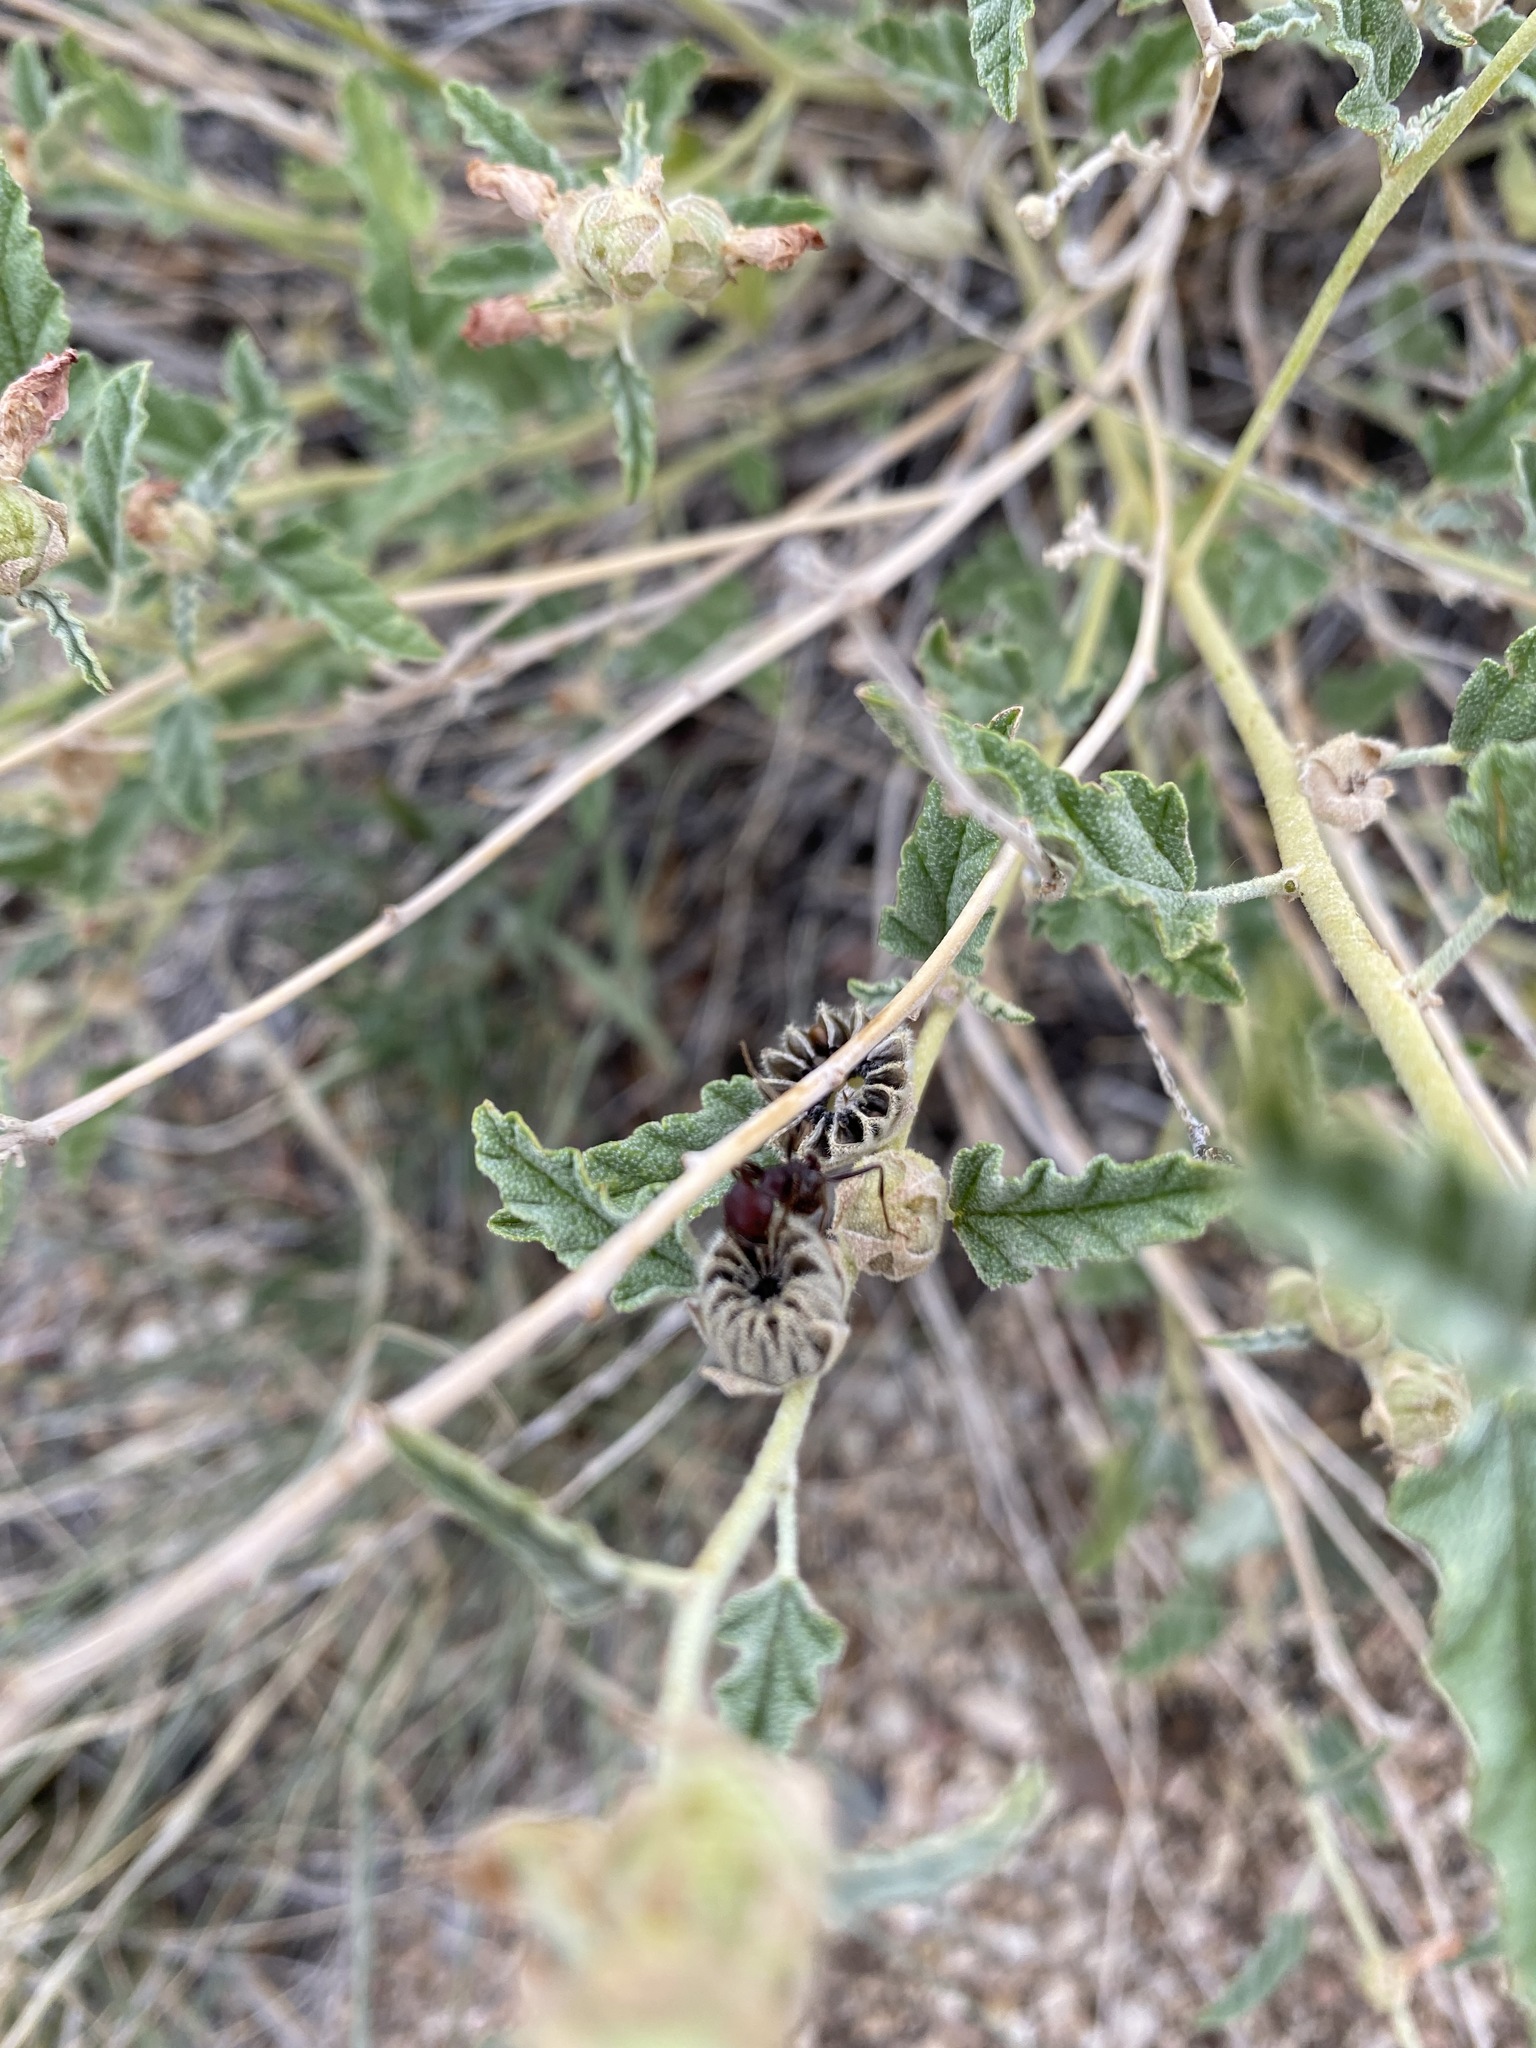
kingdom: Animalia
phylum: Arthropoda
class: Insecta
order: Hymenoptera
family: Formicidae
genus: Pogonomyrmex
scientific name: Pogonomyrmex
